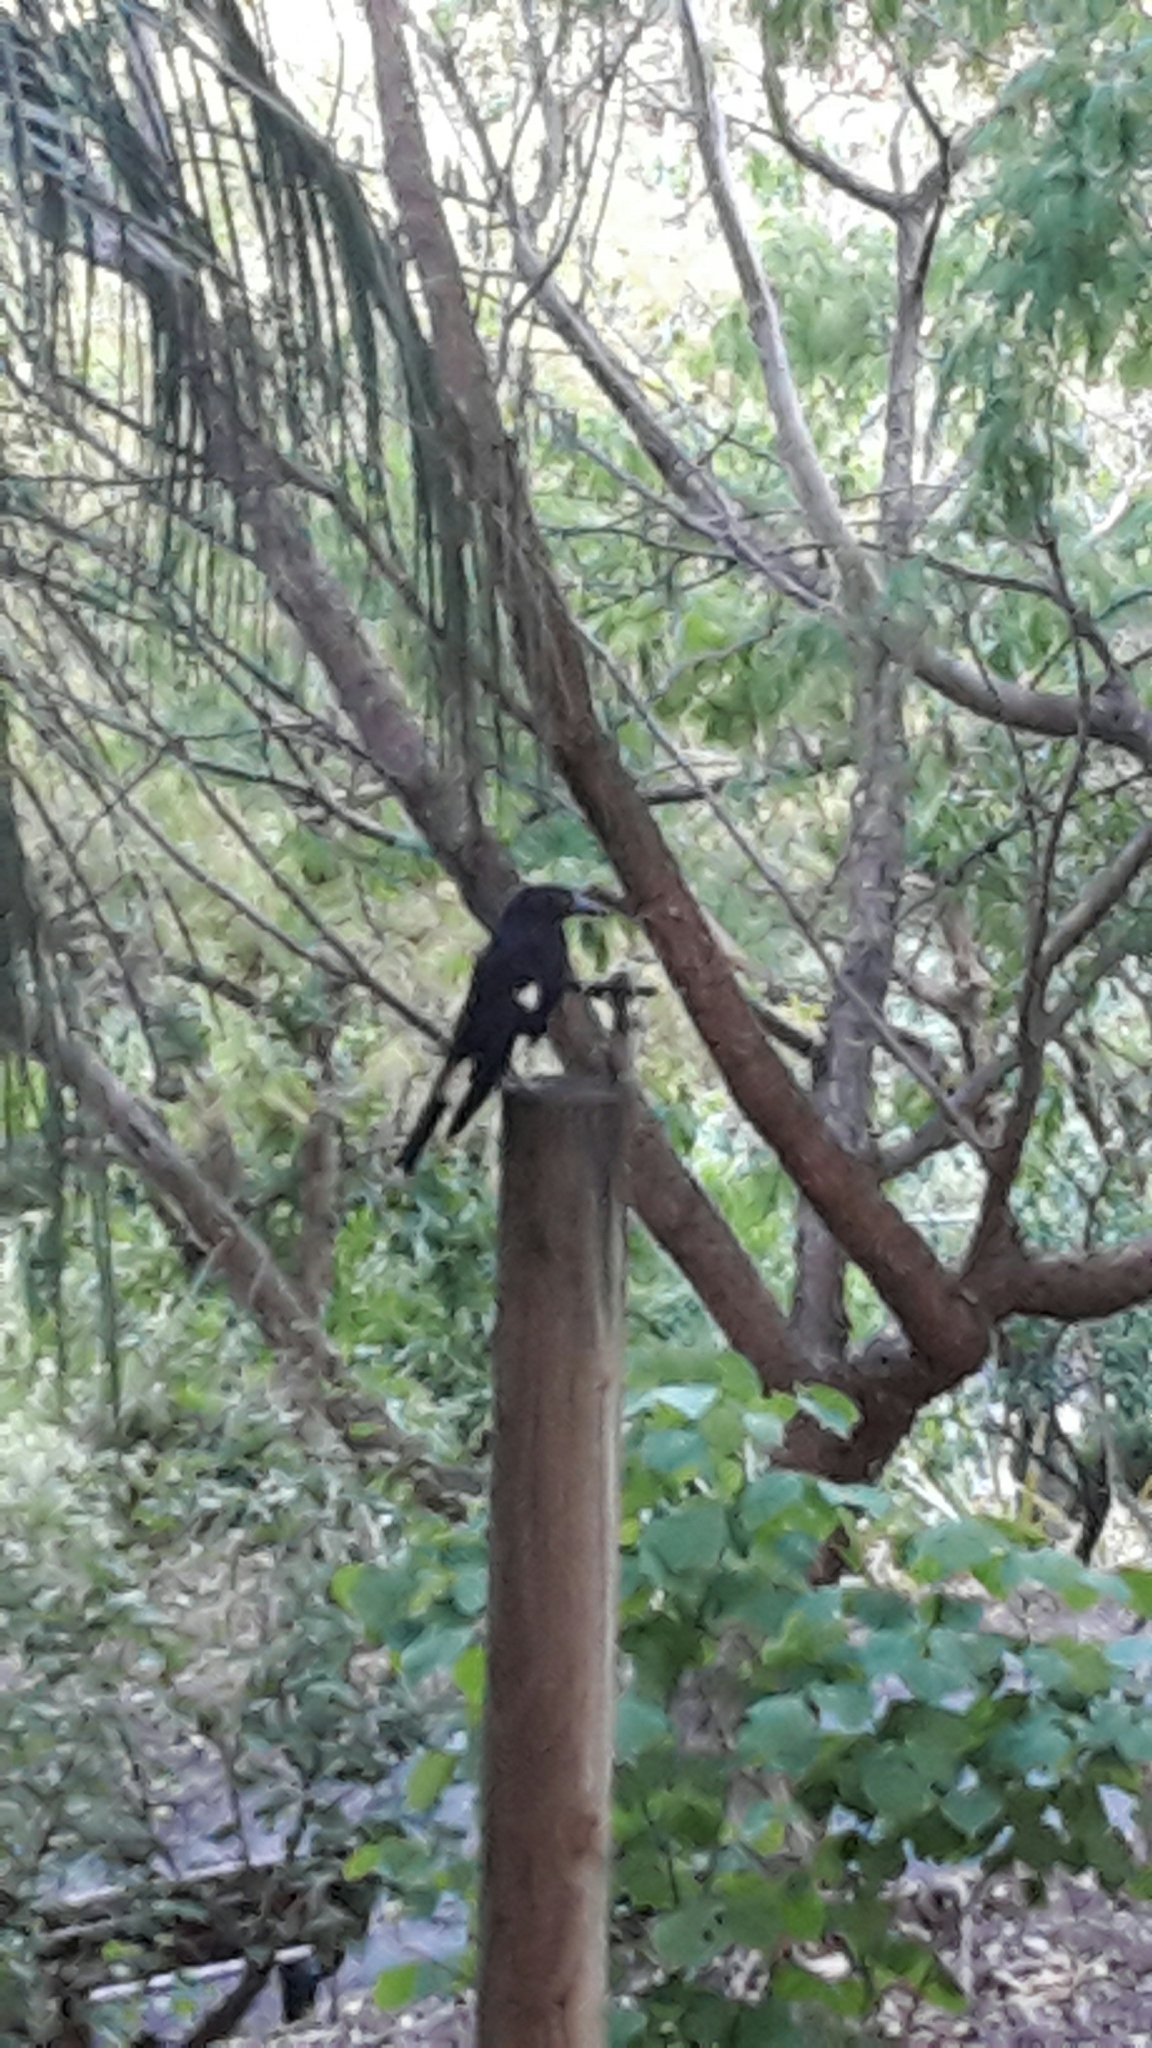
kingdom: Animalia
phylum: Chordata
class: Aves
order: Passeriformes
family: Cracticidae
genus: Strepera
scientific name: Strepera graculina
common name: Pied currawong
